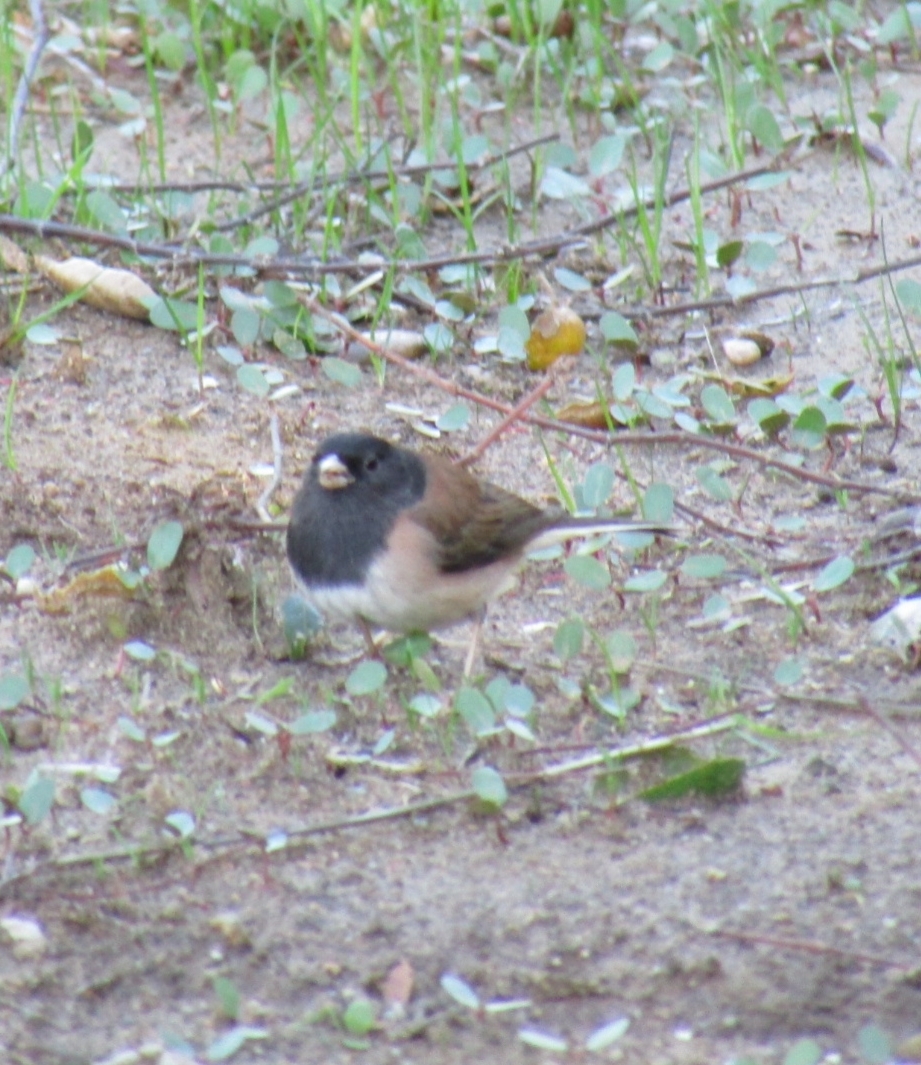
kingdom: Animalia
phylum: Chordata
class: Aves
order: Passeriformes
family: Passerellidae
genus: Junco
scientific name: Junco hyemalis
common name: Dark-eyed junco
